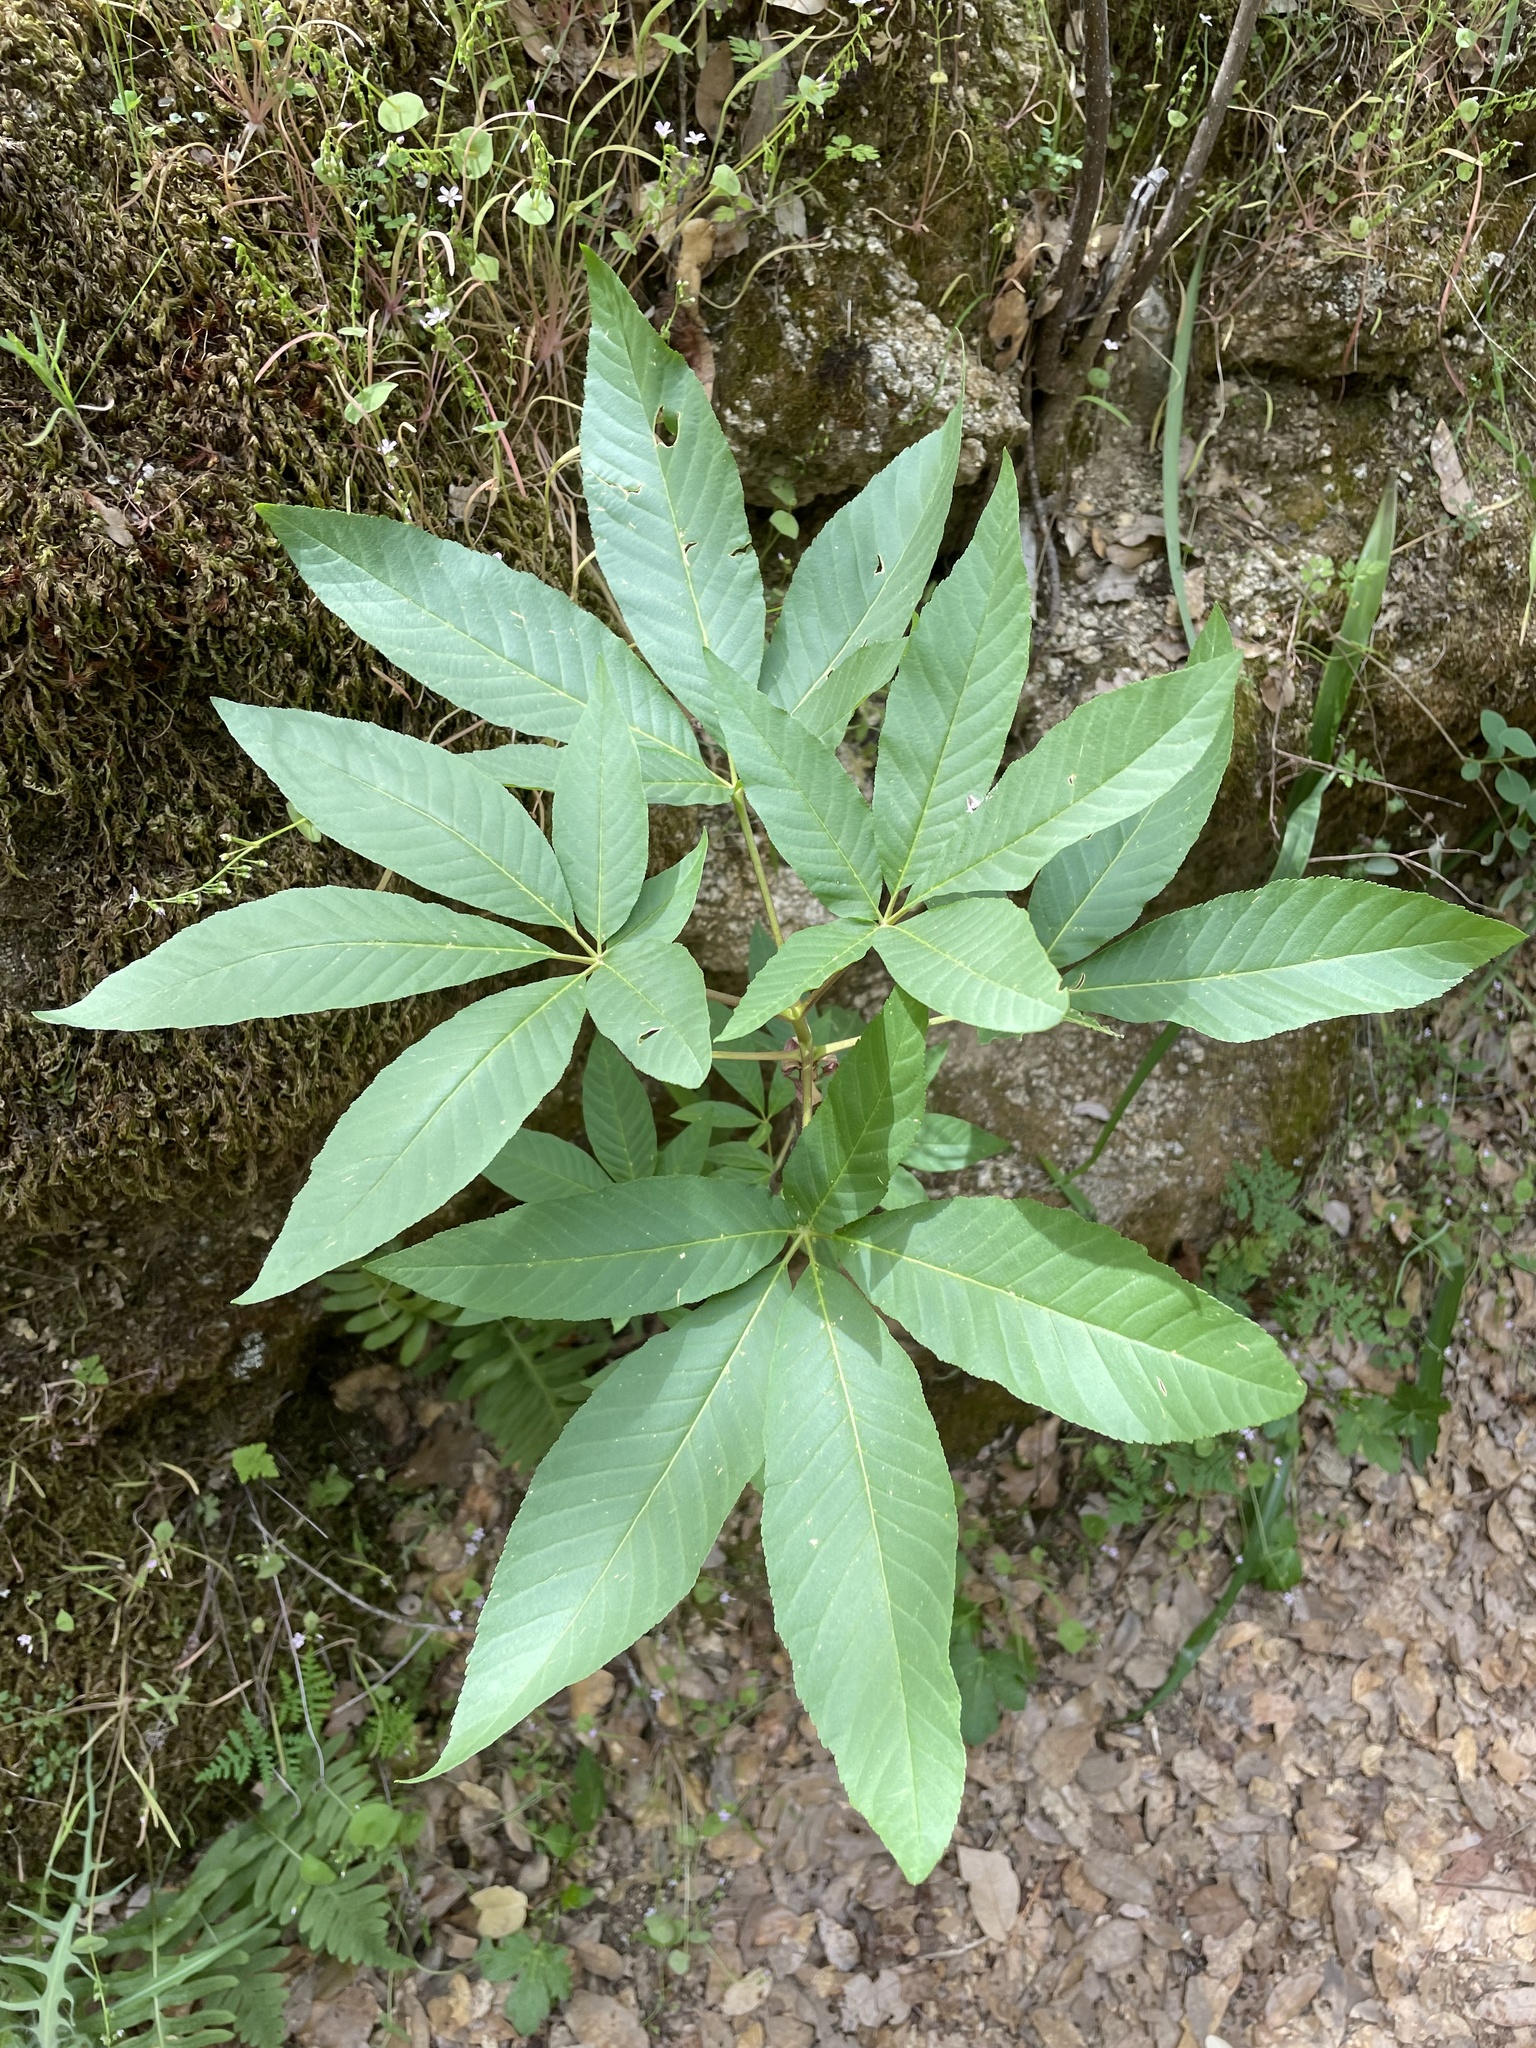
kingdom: Plantae
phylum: Tracheophyta
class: Magnoliopsida
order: Sapindales
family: Sapindaceae
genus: Aesculus
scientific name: Aesculus californica
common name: California buckeye
